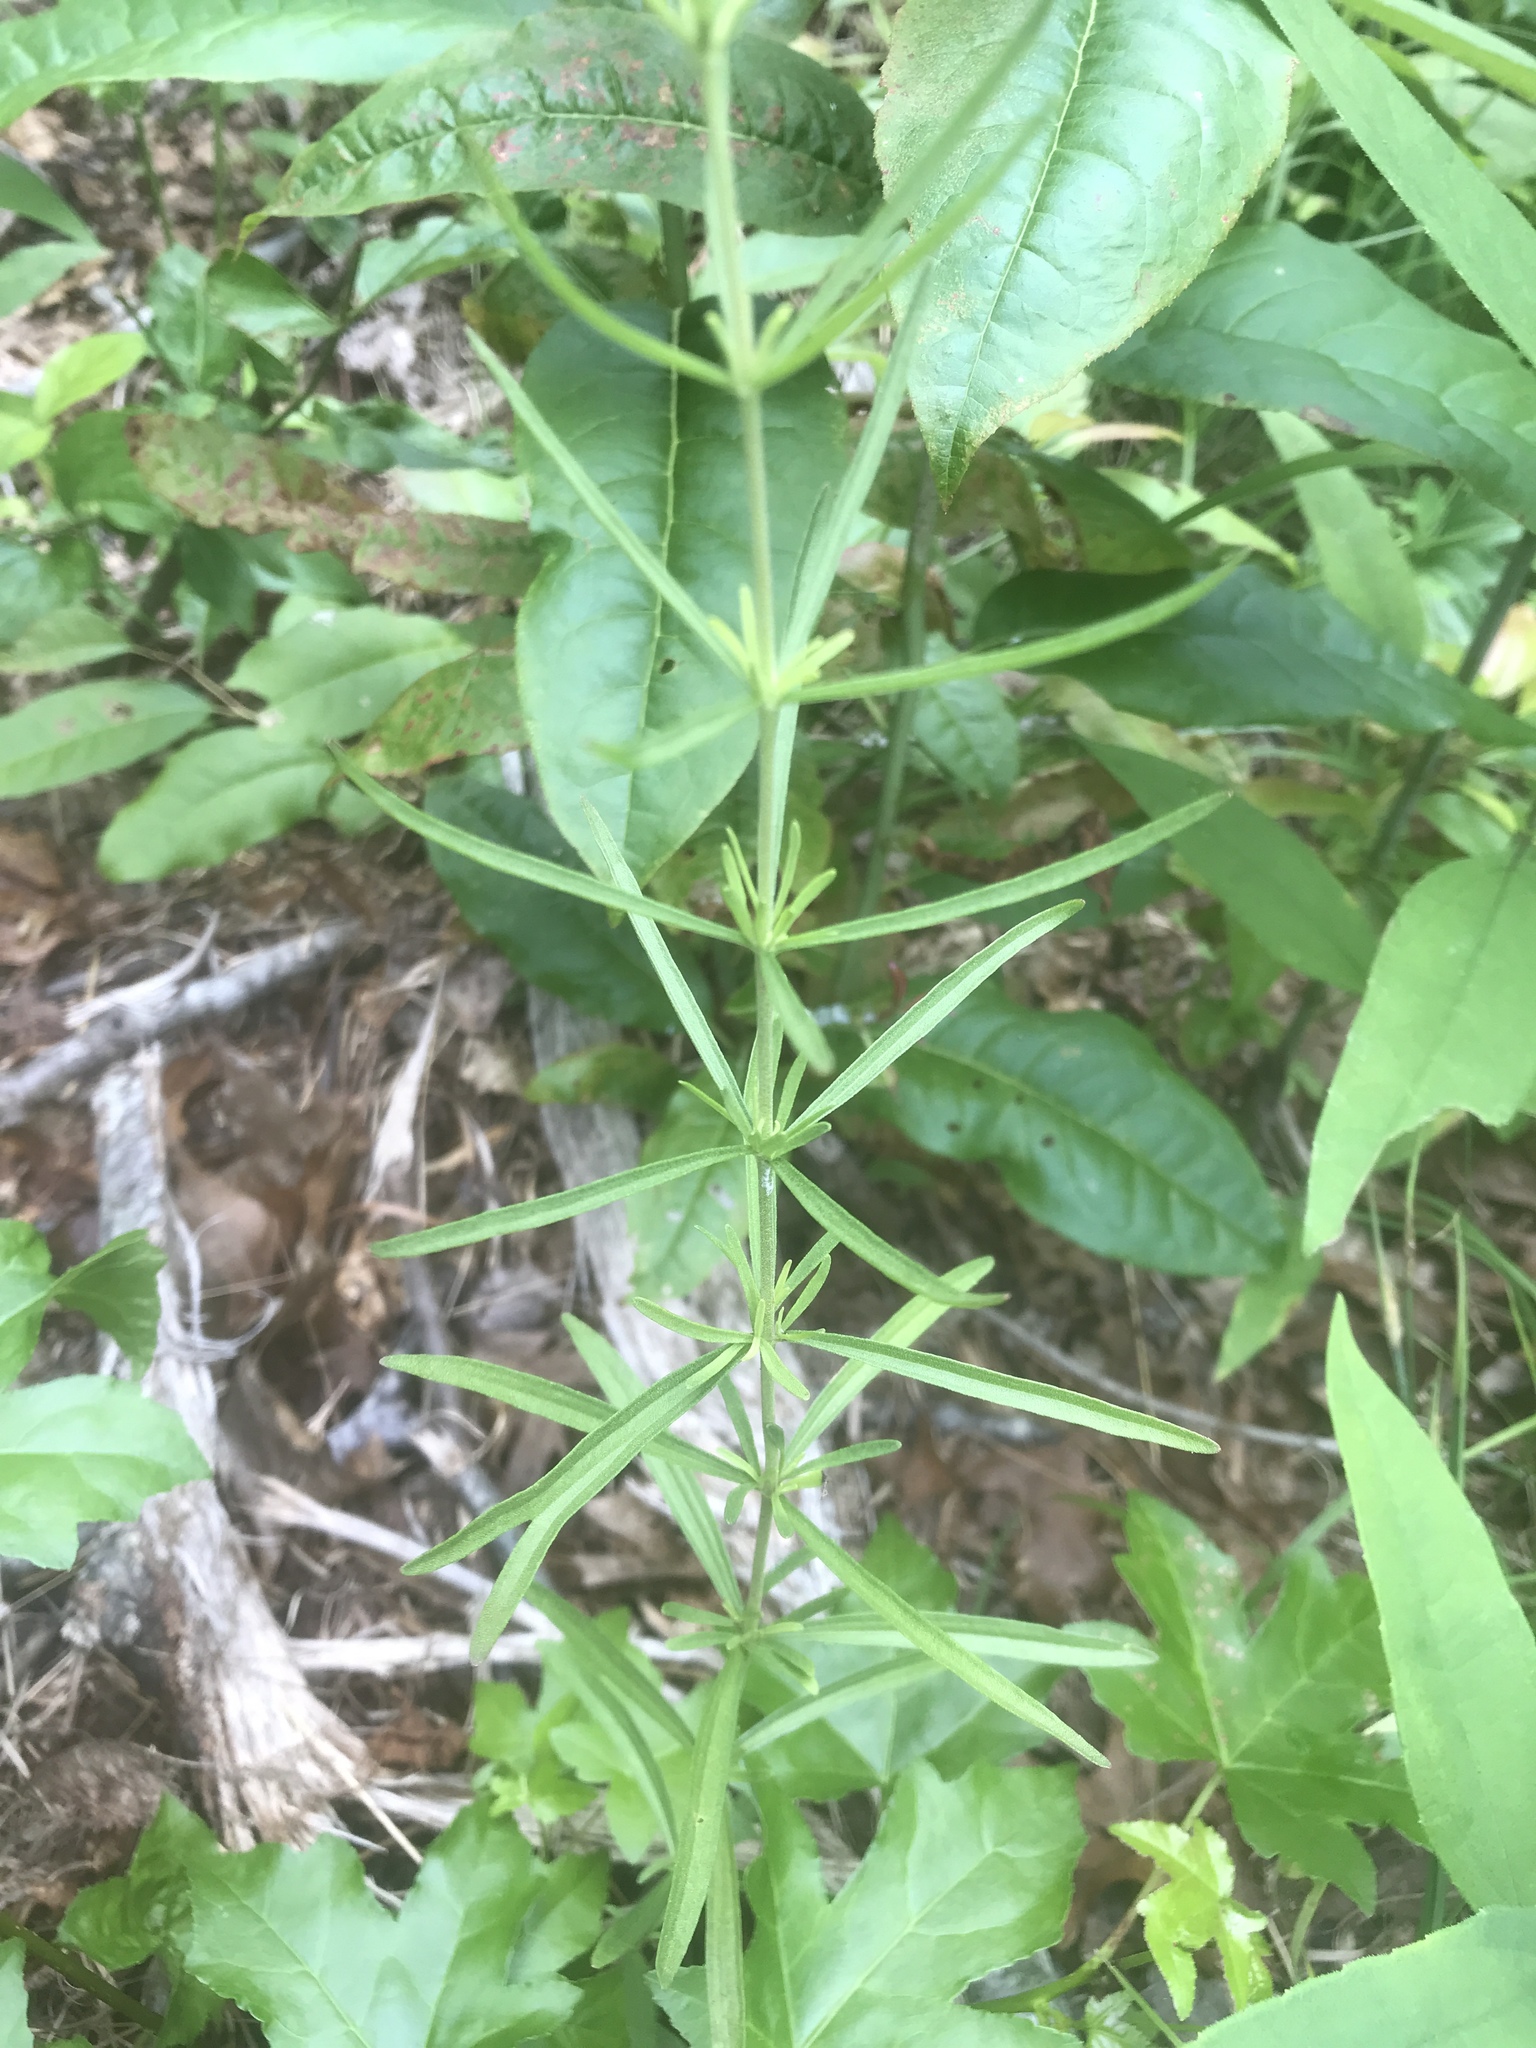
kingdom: Plantae
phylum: Tracheophyta
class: Magnoliopsida
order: Asterales
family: Asteraceae
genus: Eupatorium
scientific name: Eupatorium hyssopifolium
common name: Hyssop-leaf thoroughwort
